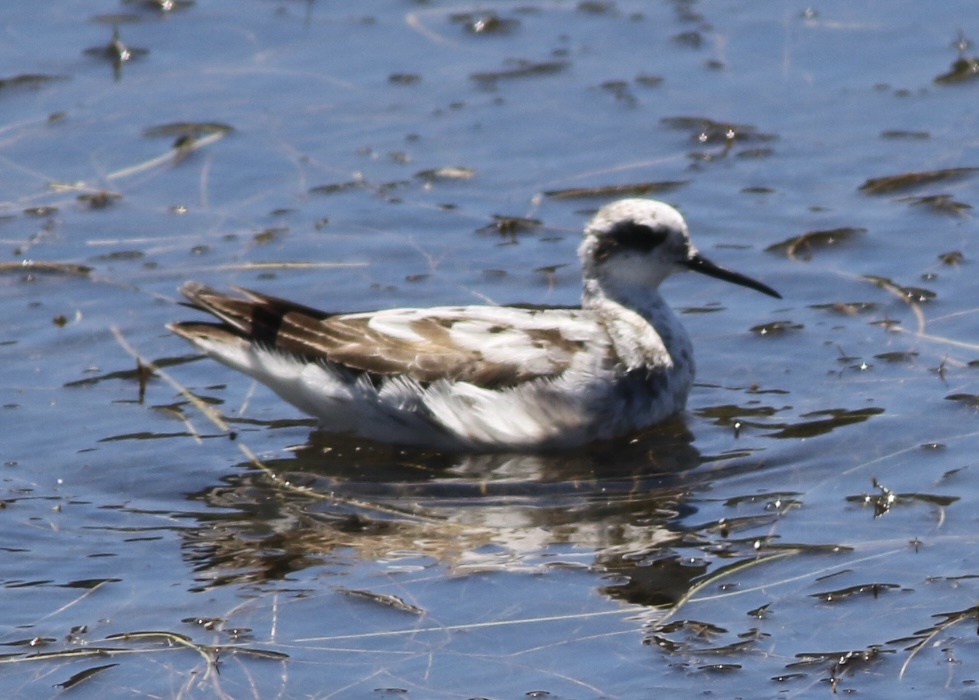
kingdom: Animalia
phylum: Chordata
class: Aves
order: Charadriiformes
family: Scolopacidae
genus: Phalaropus
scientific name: Phalaropus lobatus
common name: Red-necked phalarope
